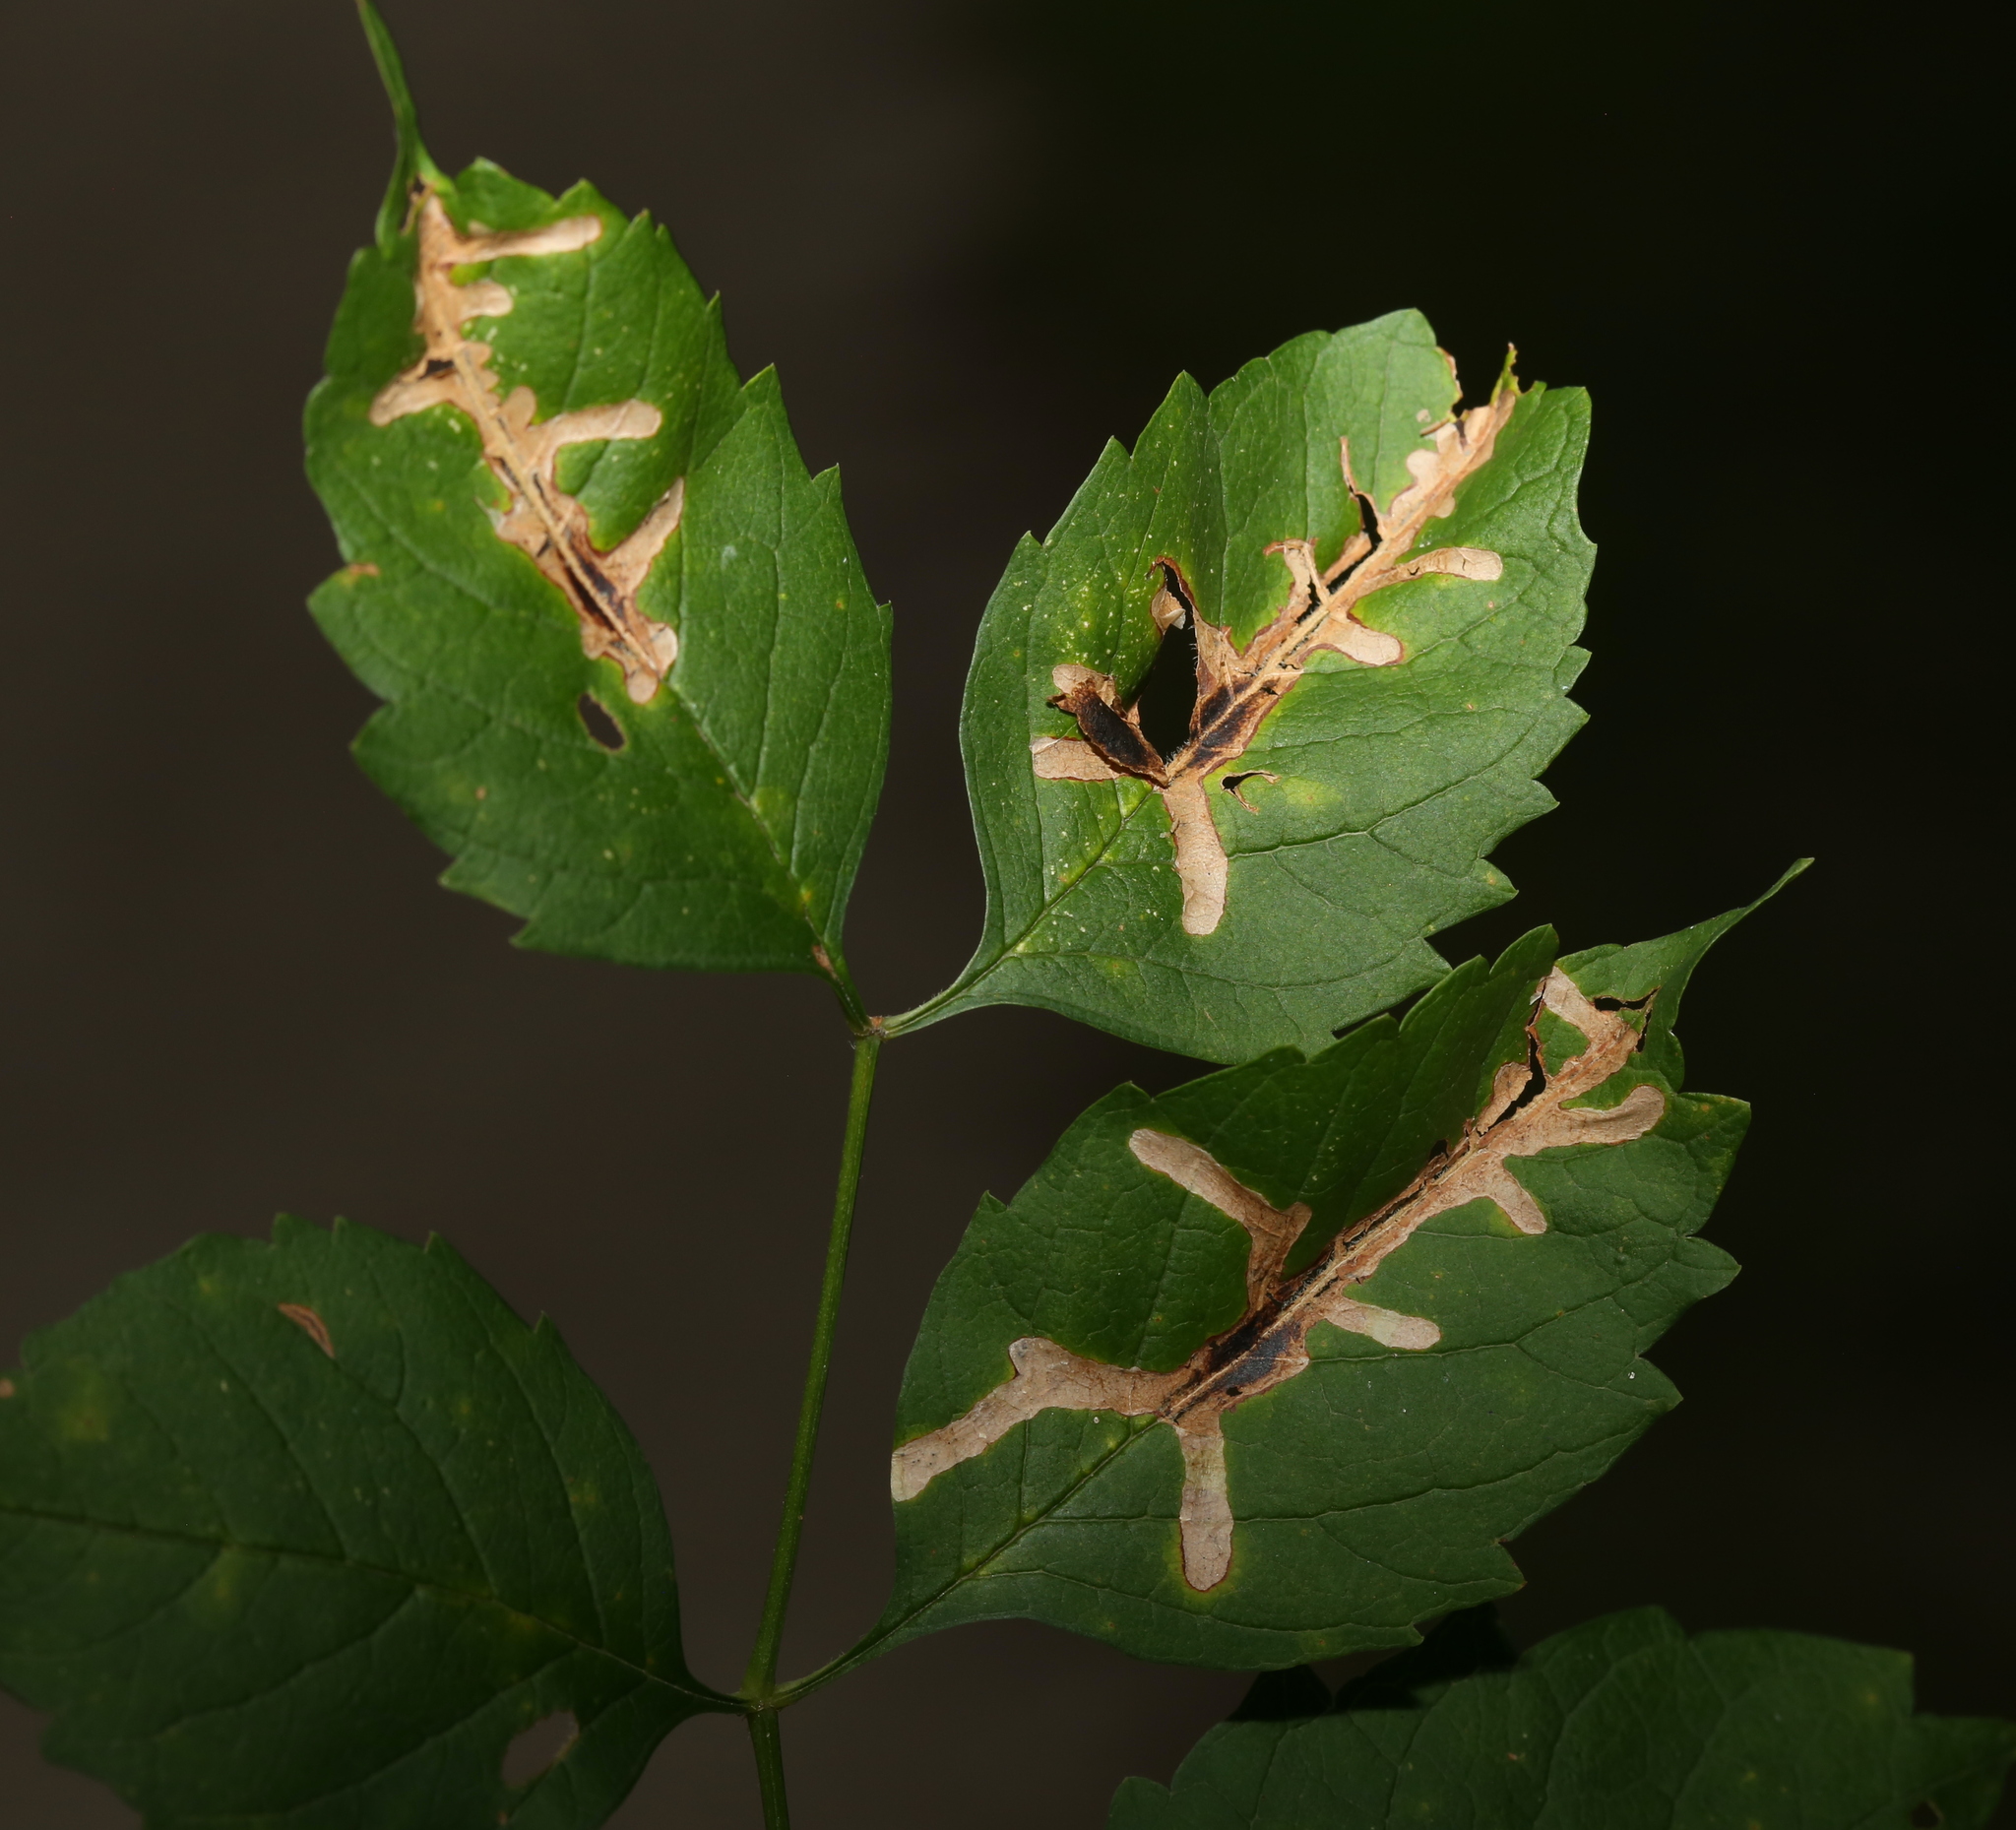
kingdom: Animalia
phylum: Arthropoda
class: Insecta
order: Coleoptera
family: Chrysomelidae
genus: Octotoma
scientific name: Octotoma plicatula
